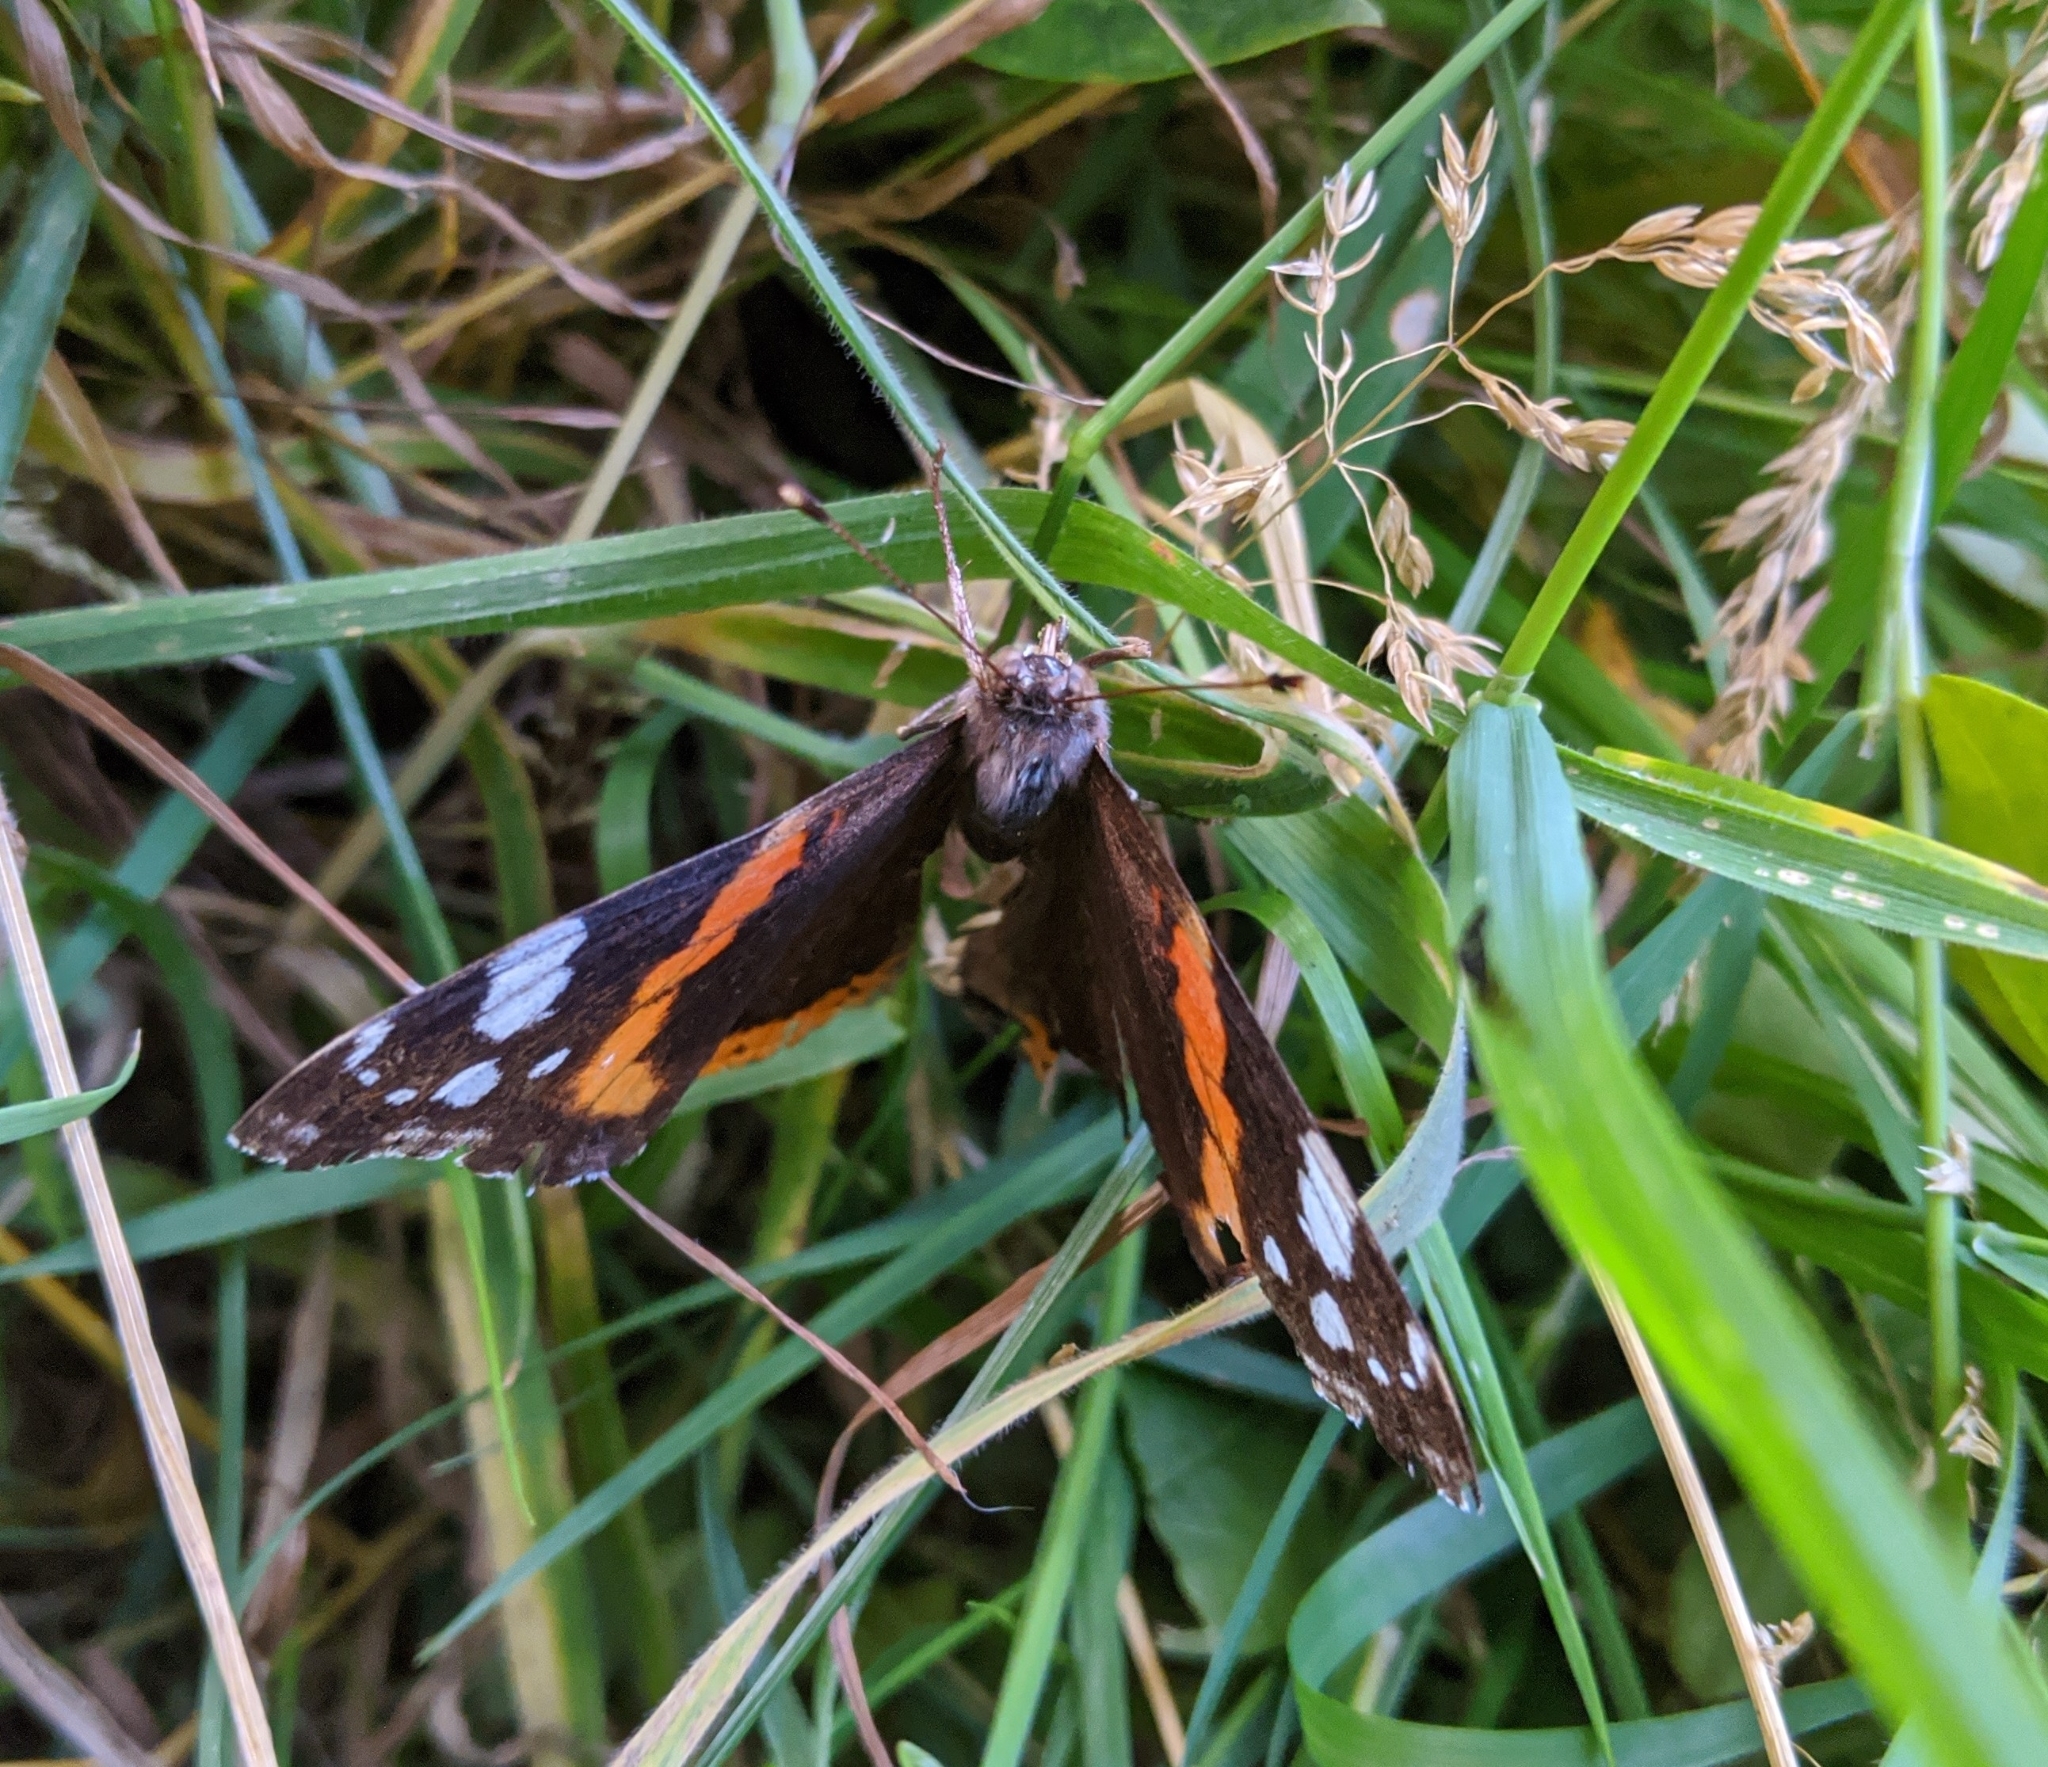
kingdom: Animalia
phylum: Arthropoda
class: Insecta
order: Lepidoptera
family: Nymphalidae
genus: Vanessa
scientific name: Vanessa atalanta
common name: Red admiral
